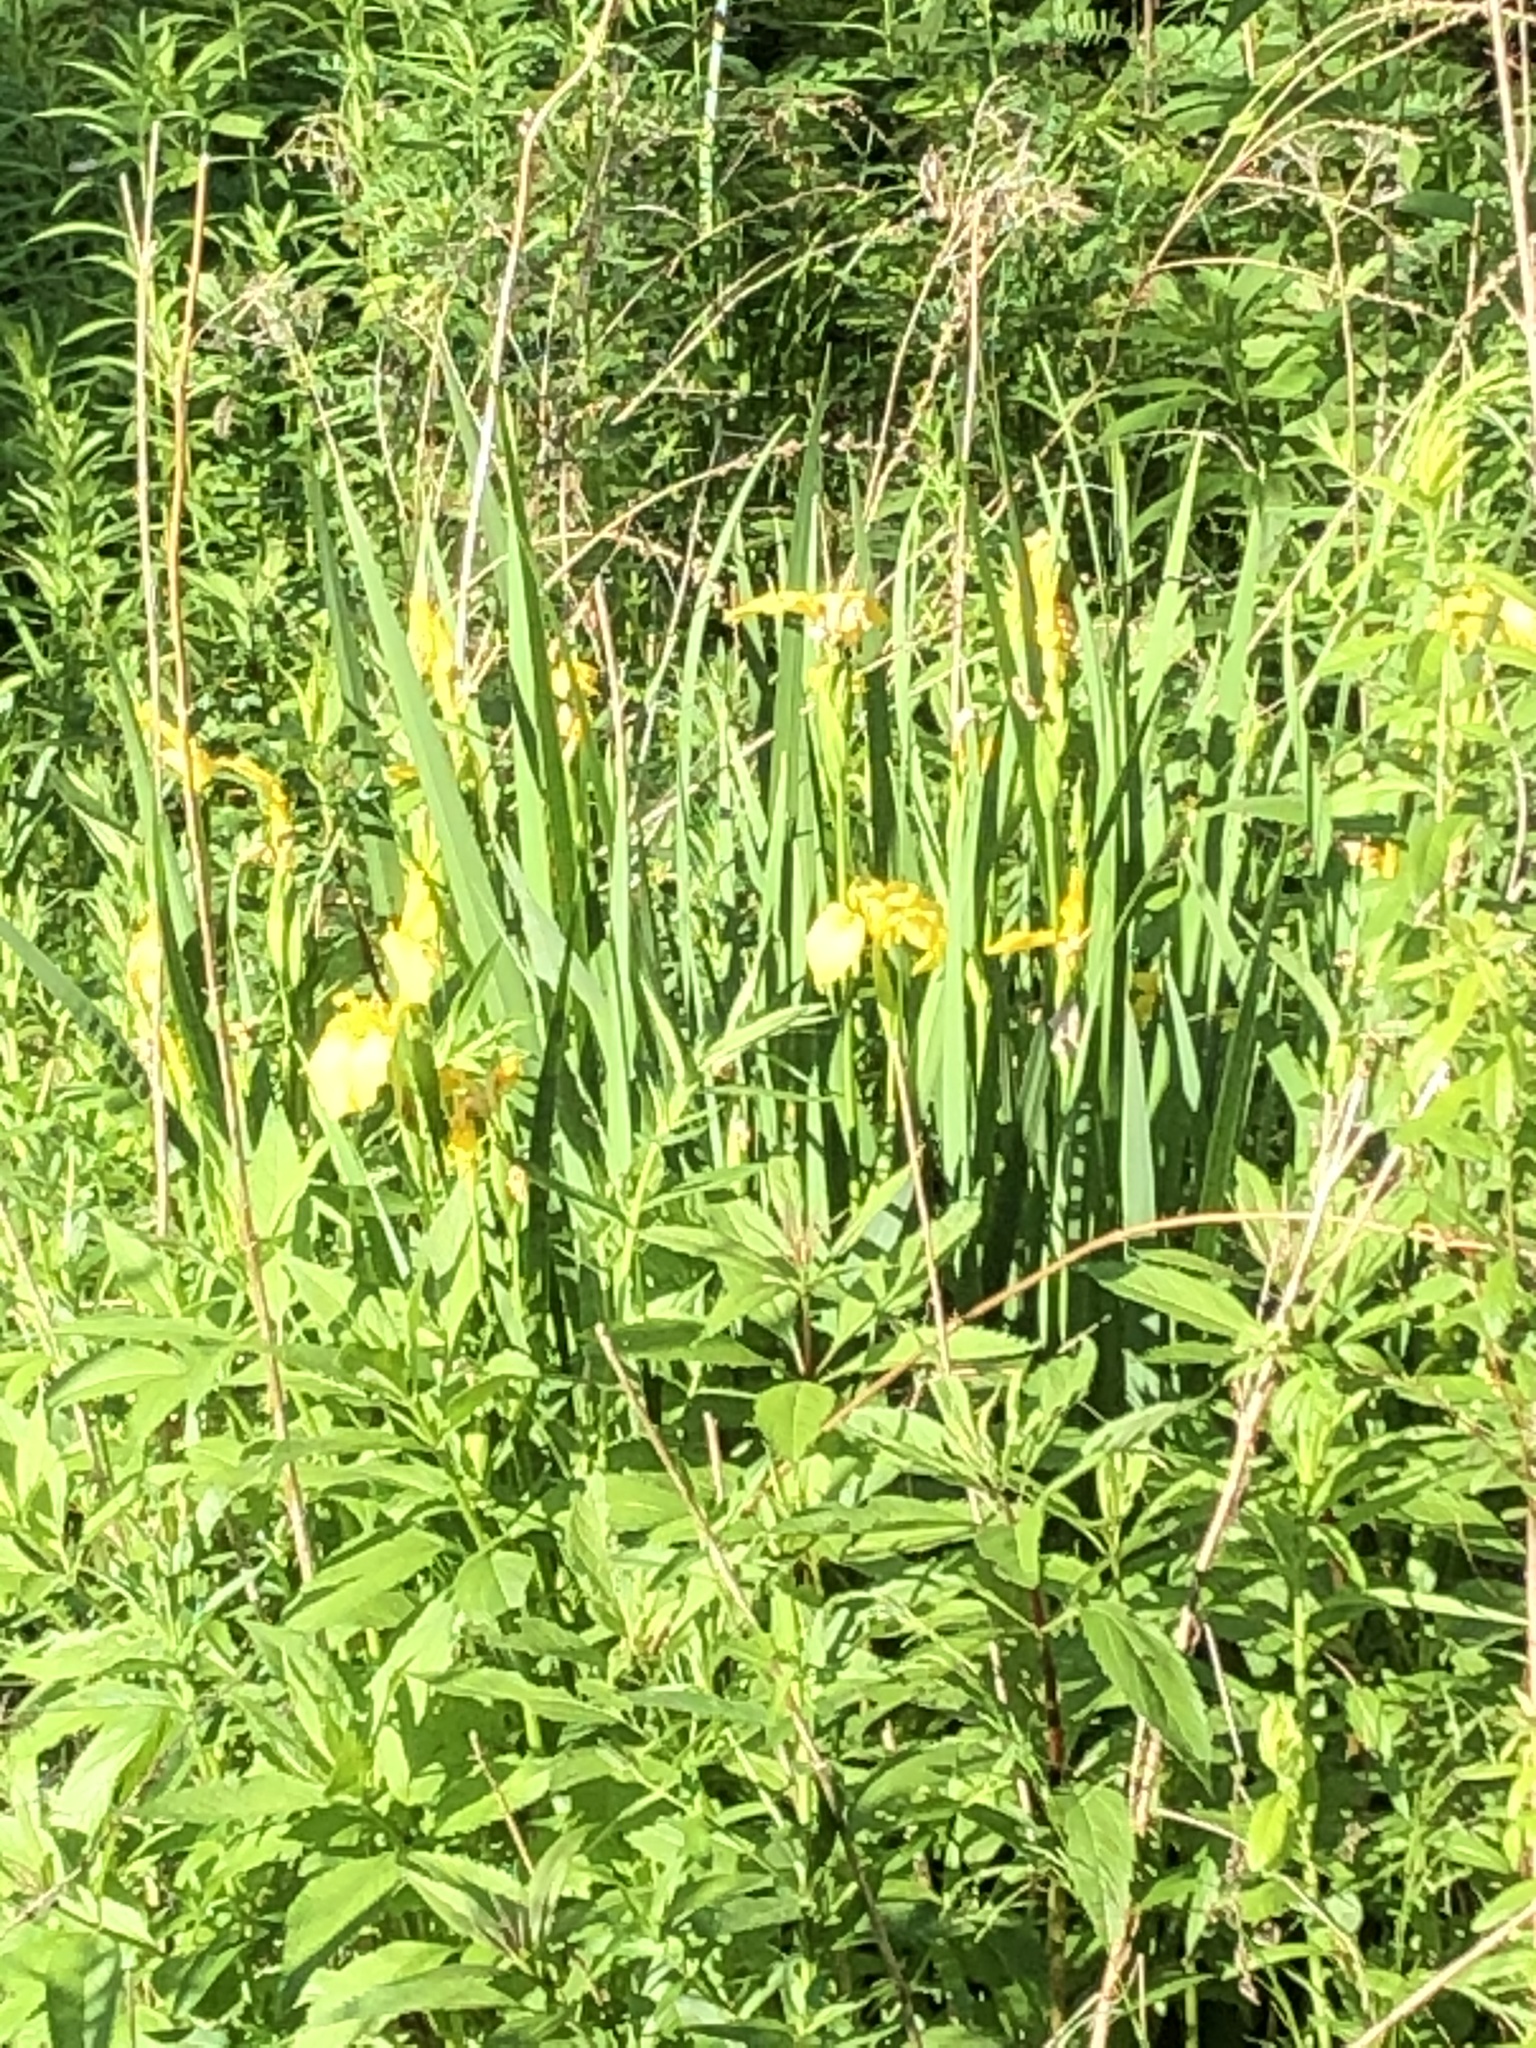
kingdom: Plantae
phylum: Tracheophyta
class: Liliopsida
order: Asparagales
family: Iridaceae
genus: Iris
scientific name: Iris pseudacorus
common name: Yellow flag
